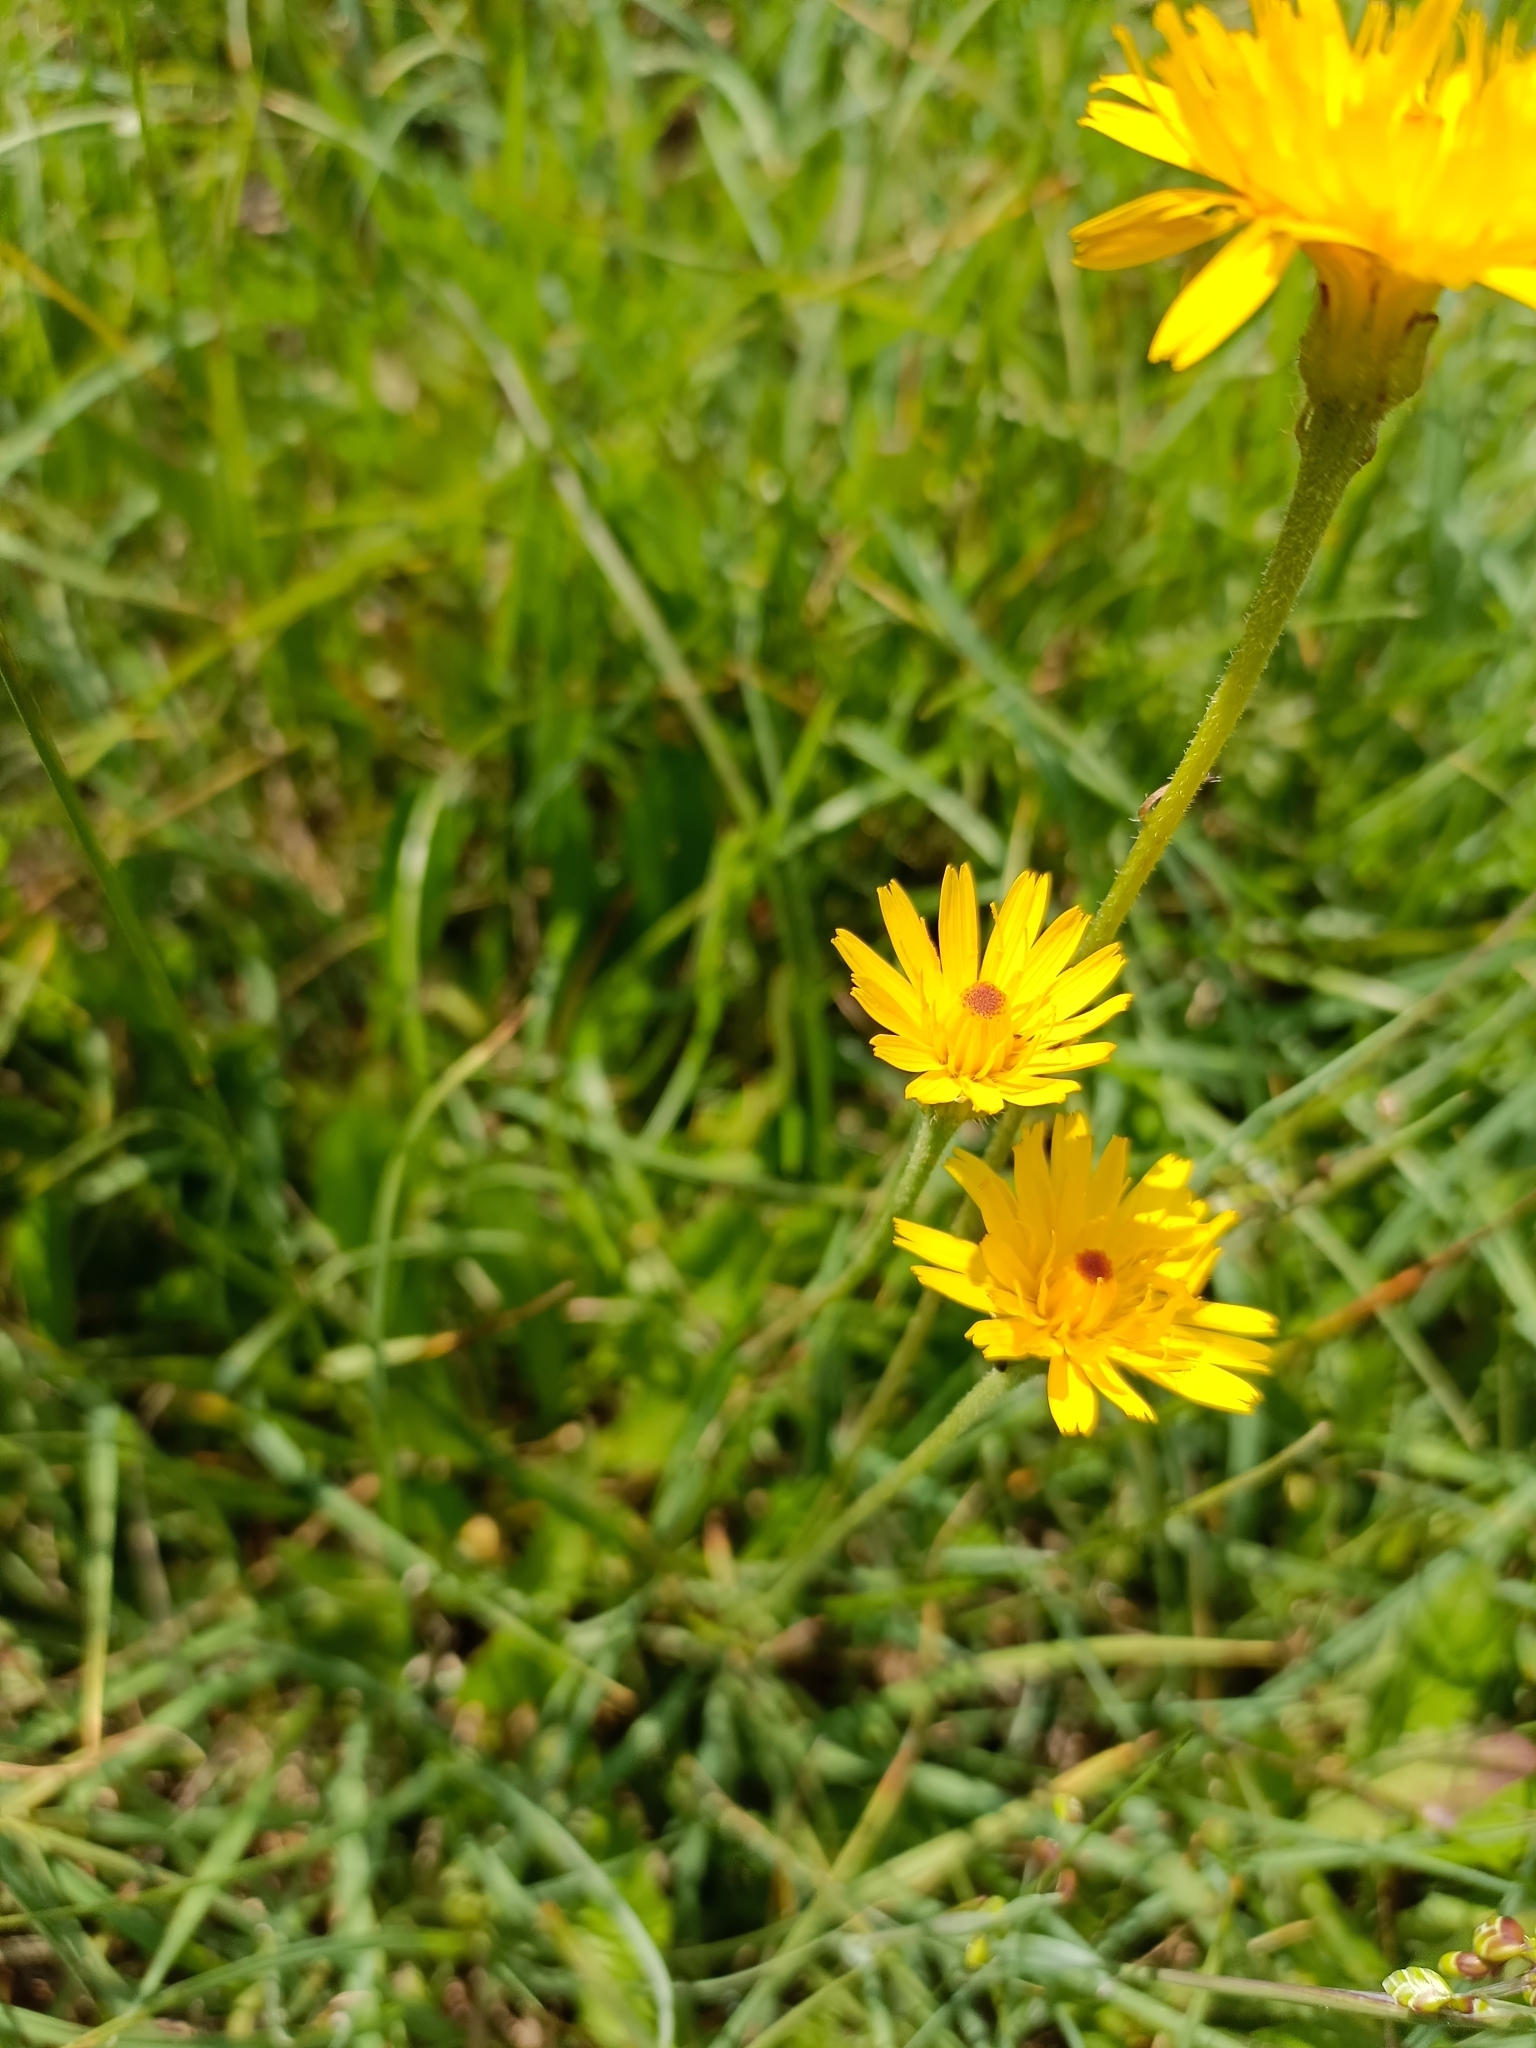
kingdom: Plantae
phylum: Tracheophyta
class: Magnoliopsida
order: Asterales
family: Asteraceae
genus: Leontodon
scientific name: Leontodon hispidus
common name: Rough hawkbit
